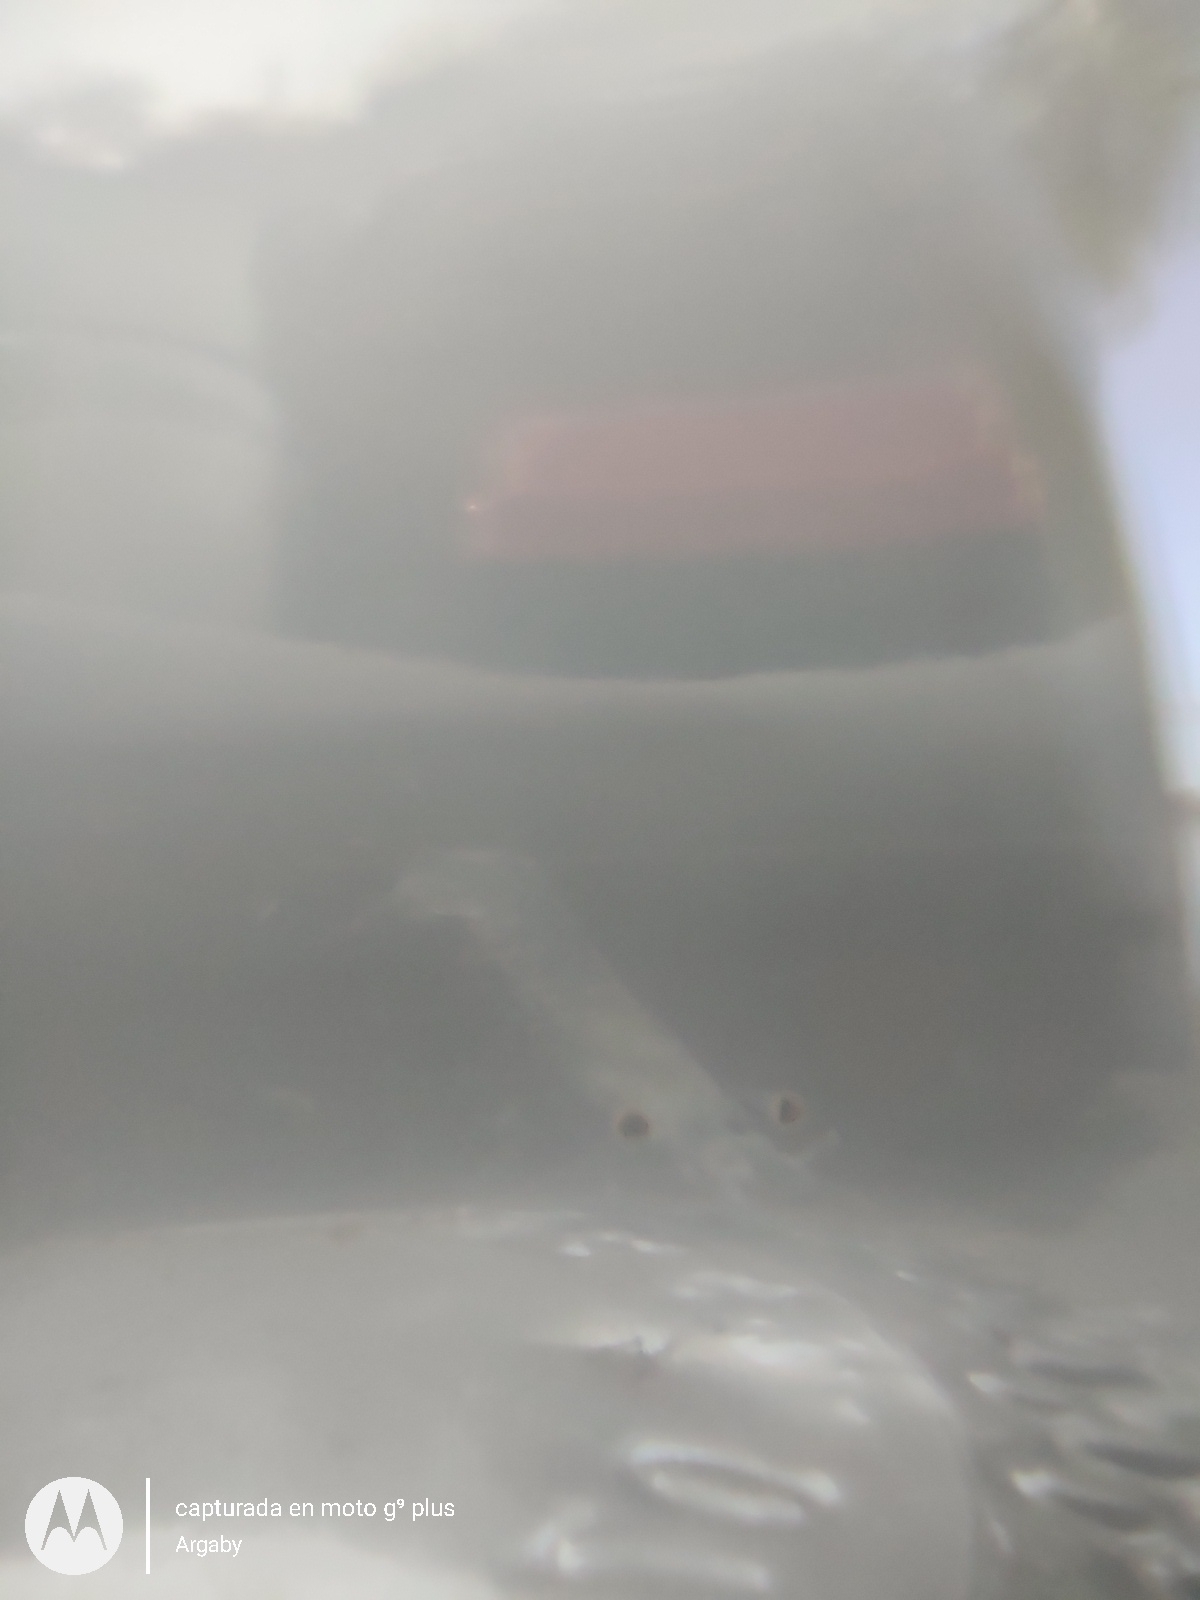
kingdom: Animalia
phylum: Arthropoda
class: Malacostraca
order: Decapoda
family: Acetidae
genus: Acetes
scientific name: Acetes paraguayensis
